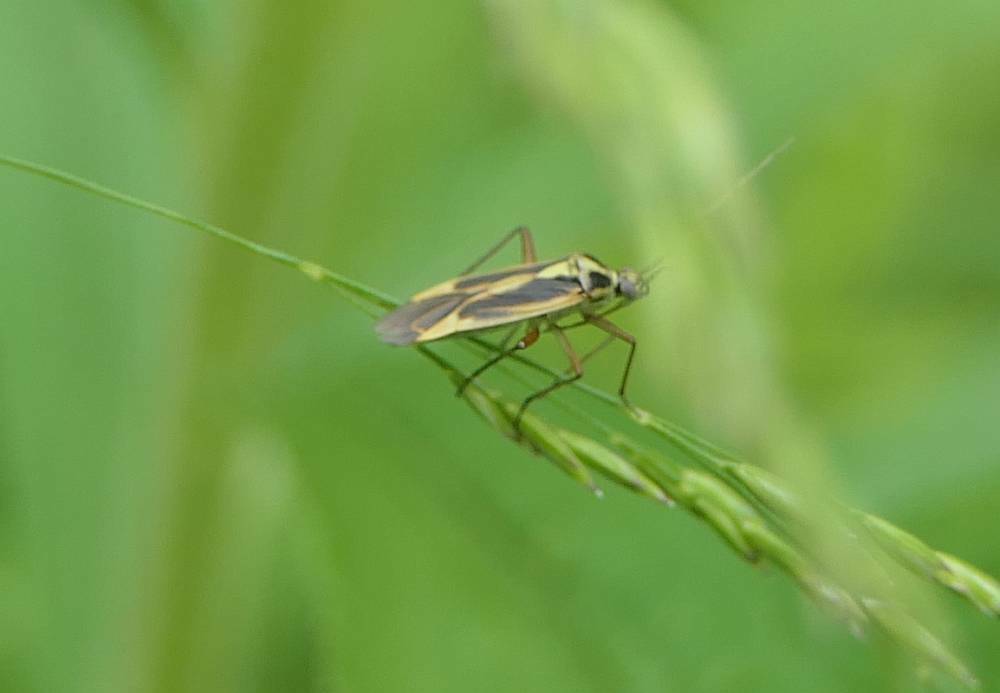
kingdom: Animalia
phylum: Arthropoda
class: Insecta
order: Hemiptera
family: Miridae
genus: Stenotus
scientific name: Stenotus binotatus
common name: Plant bug
